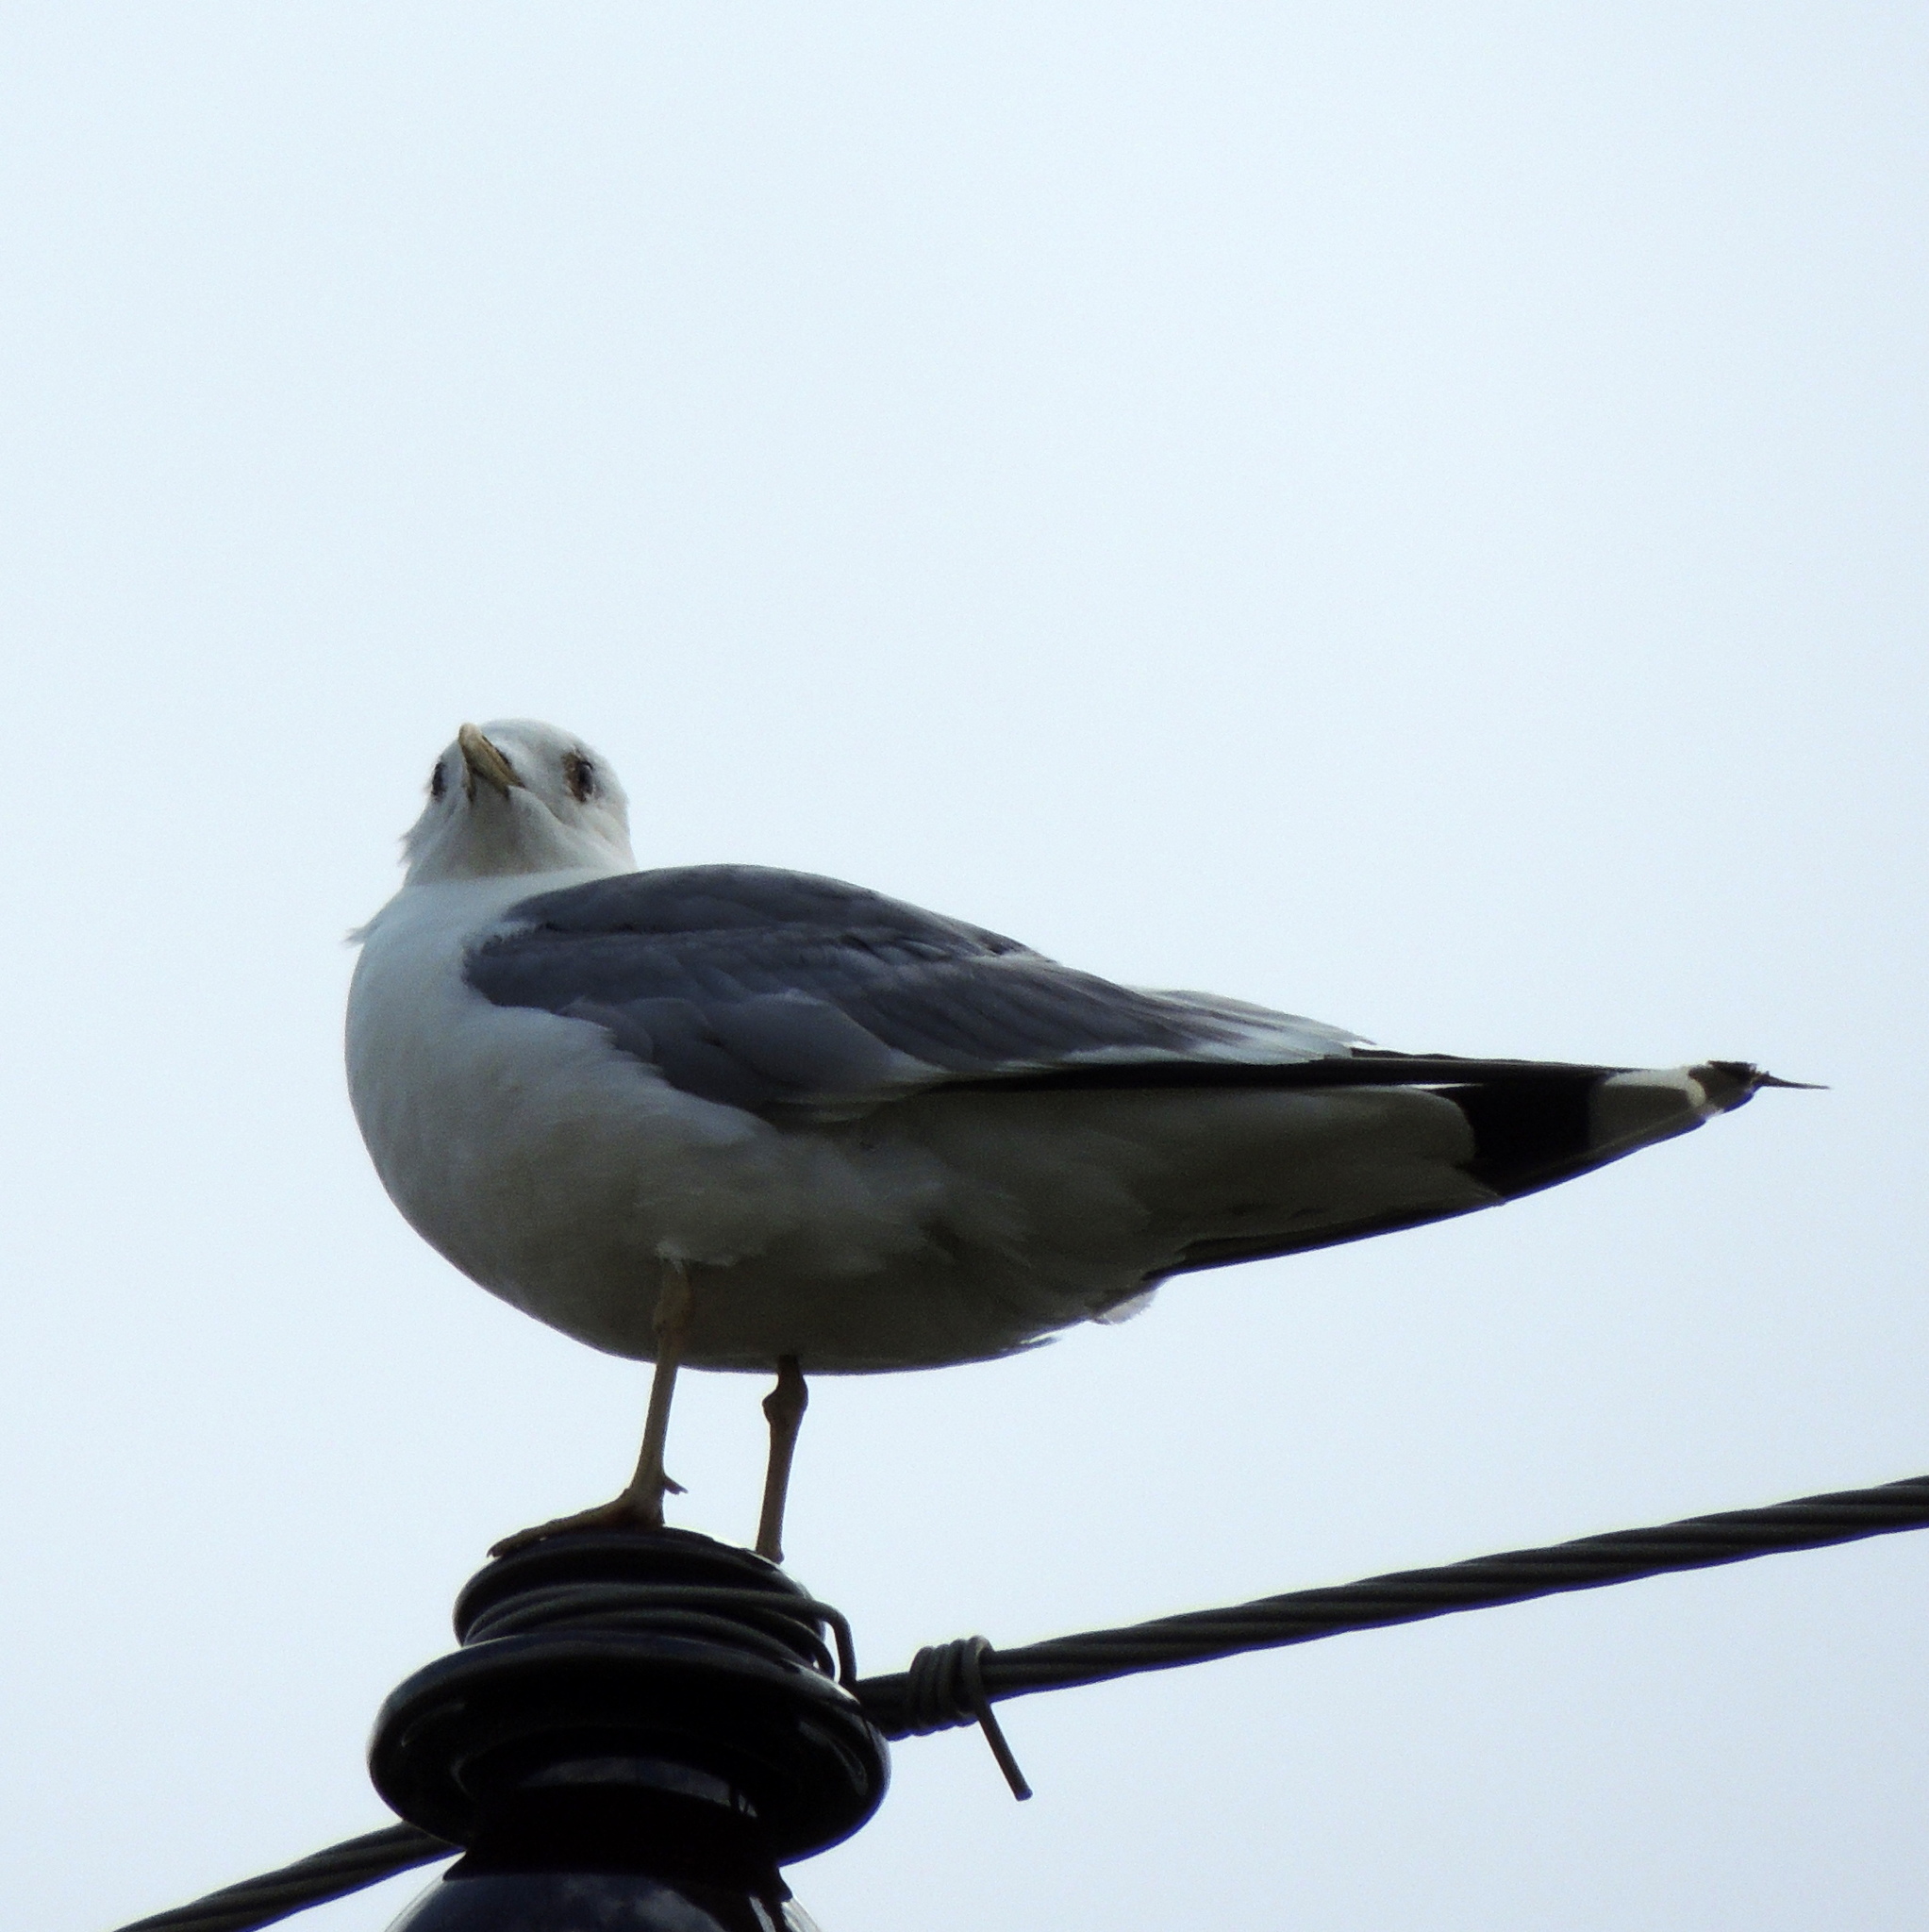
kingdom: Animalia
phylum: Chordata
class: Aves
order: Charadriiformes
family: Laridae
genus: Larus
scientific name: Larus canus
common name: Mew gull
